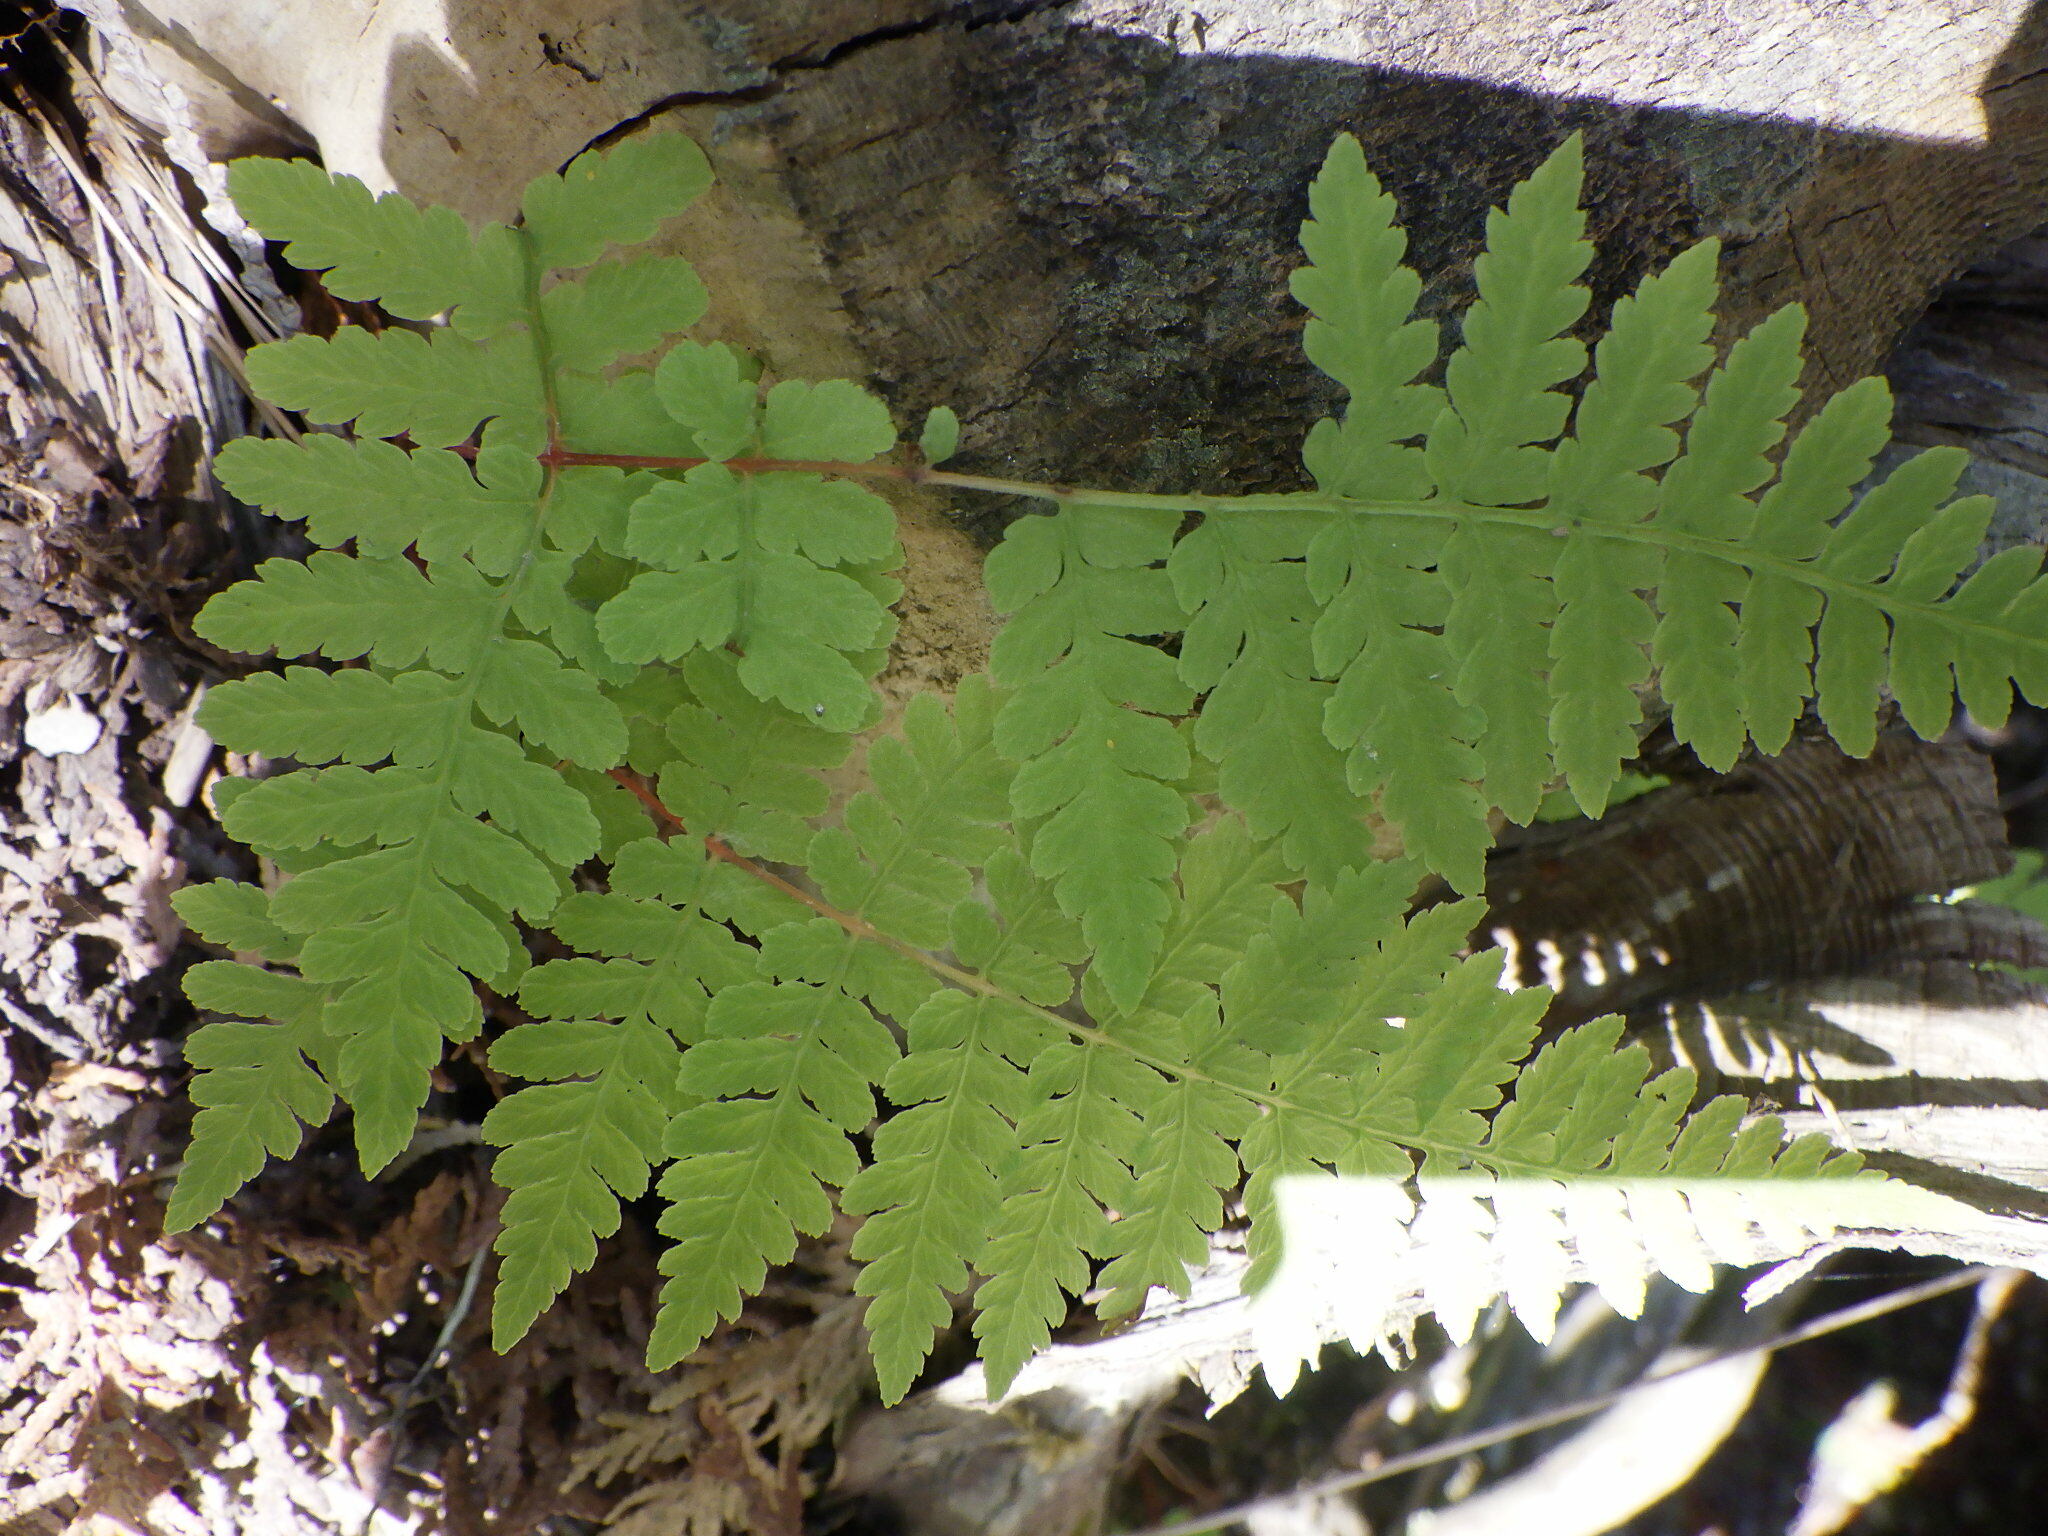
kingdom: Plantae
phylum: Tracheophyta
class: Polypodiopsida
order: Polypodiales
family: Cystopteridaceae
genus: Cystopteris
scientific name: Cystopteris bulbifera
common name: Bulblet bladder fern
